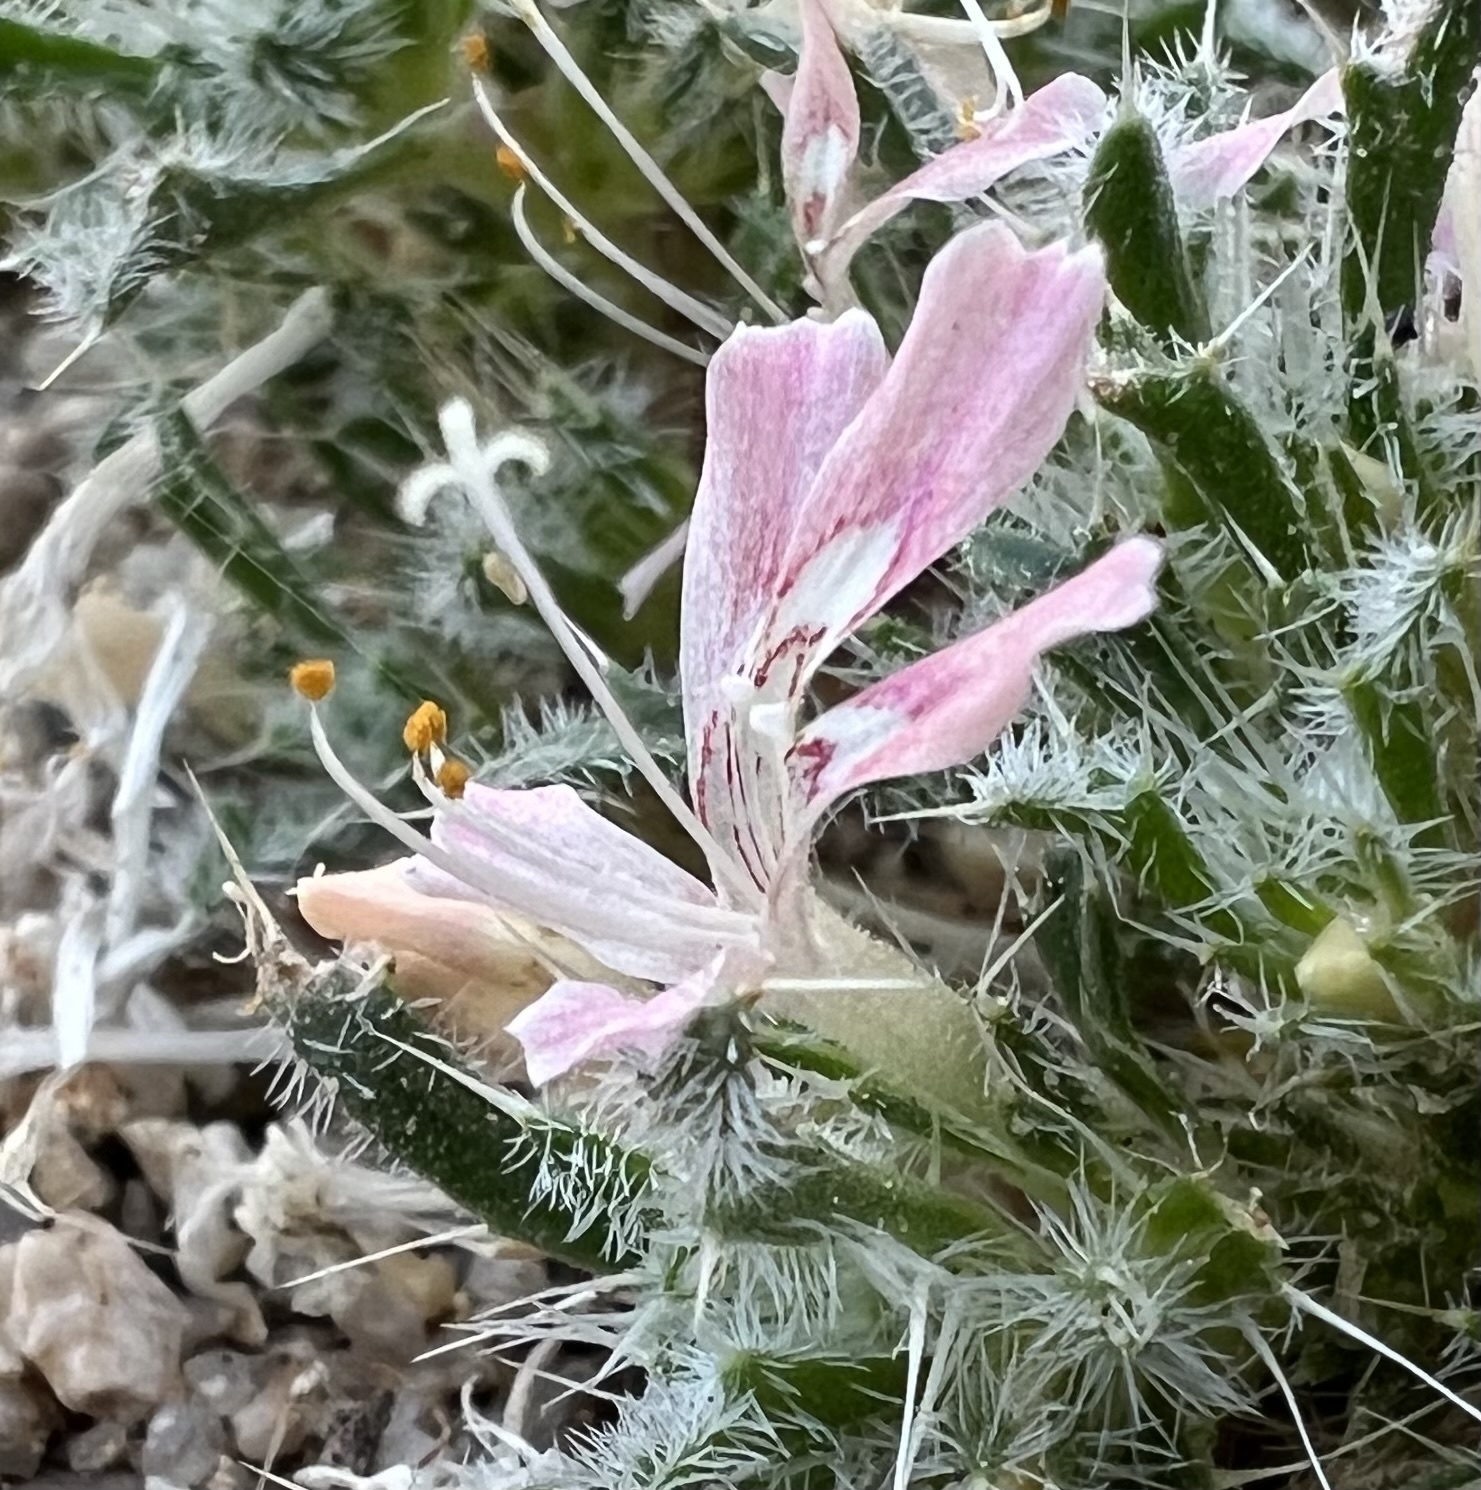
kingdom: Plantae
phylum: Tracheophyta
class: Magnoliopsida
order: Ericales
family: Polemoniaceae
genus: Loeseliastrum
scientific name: Loeseliastrum matthewsii
